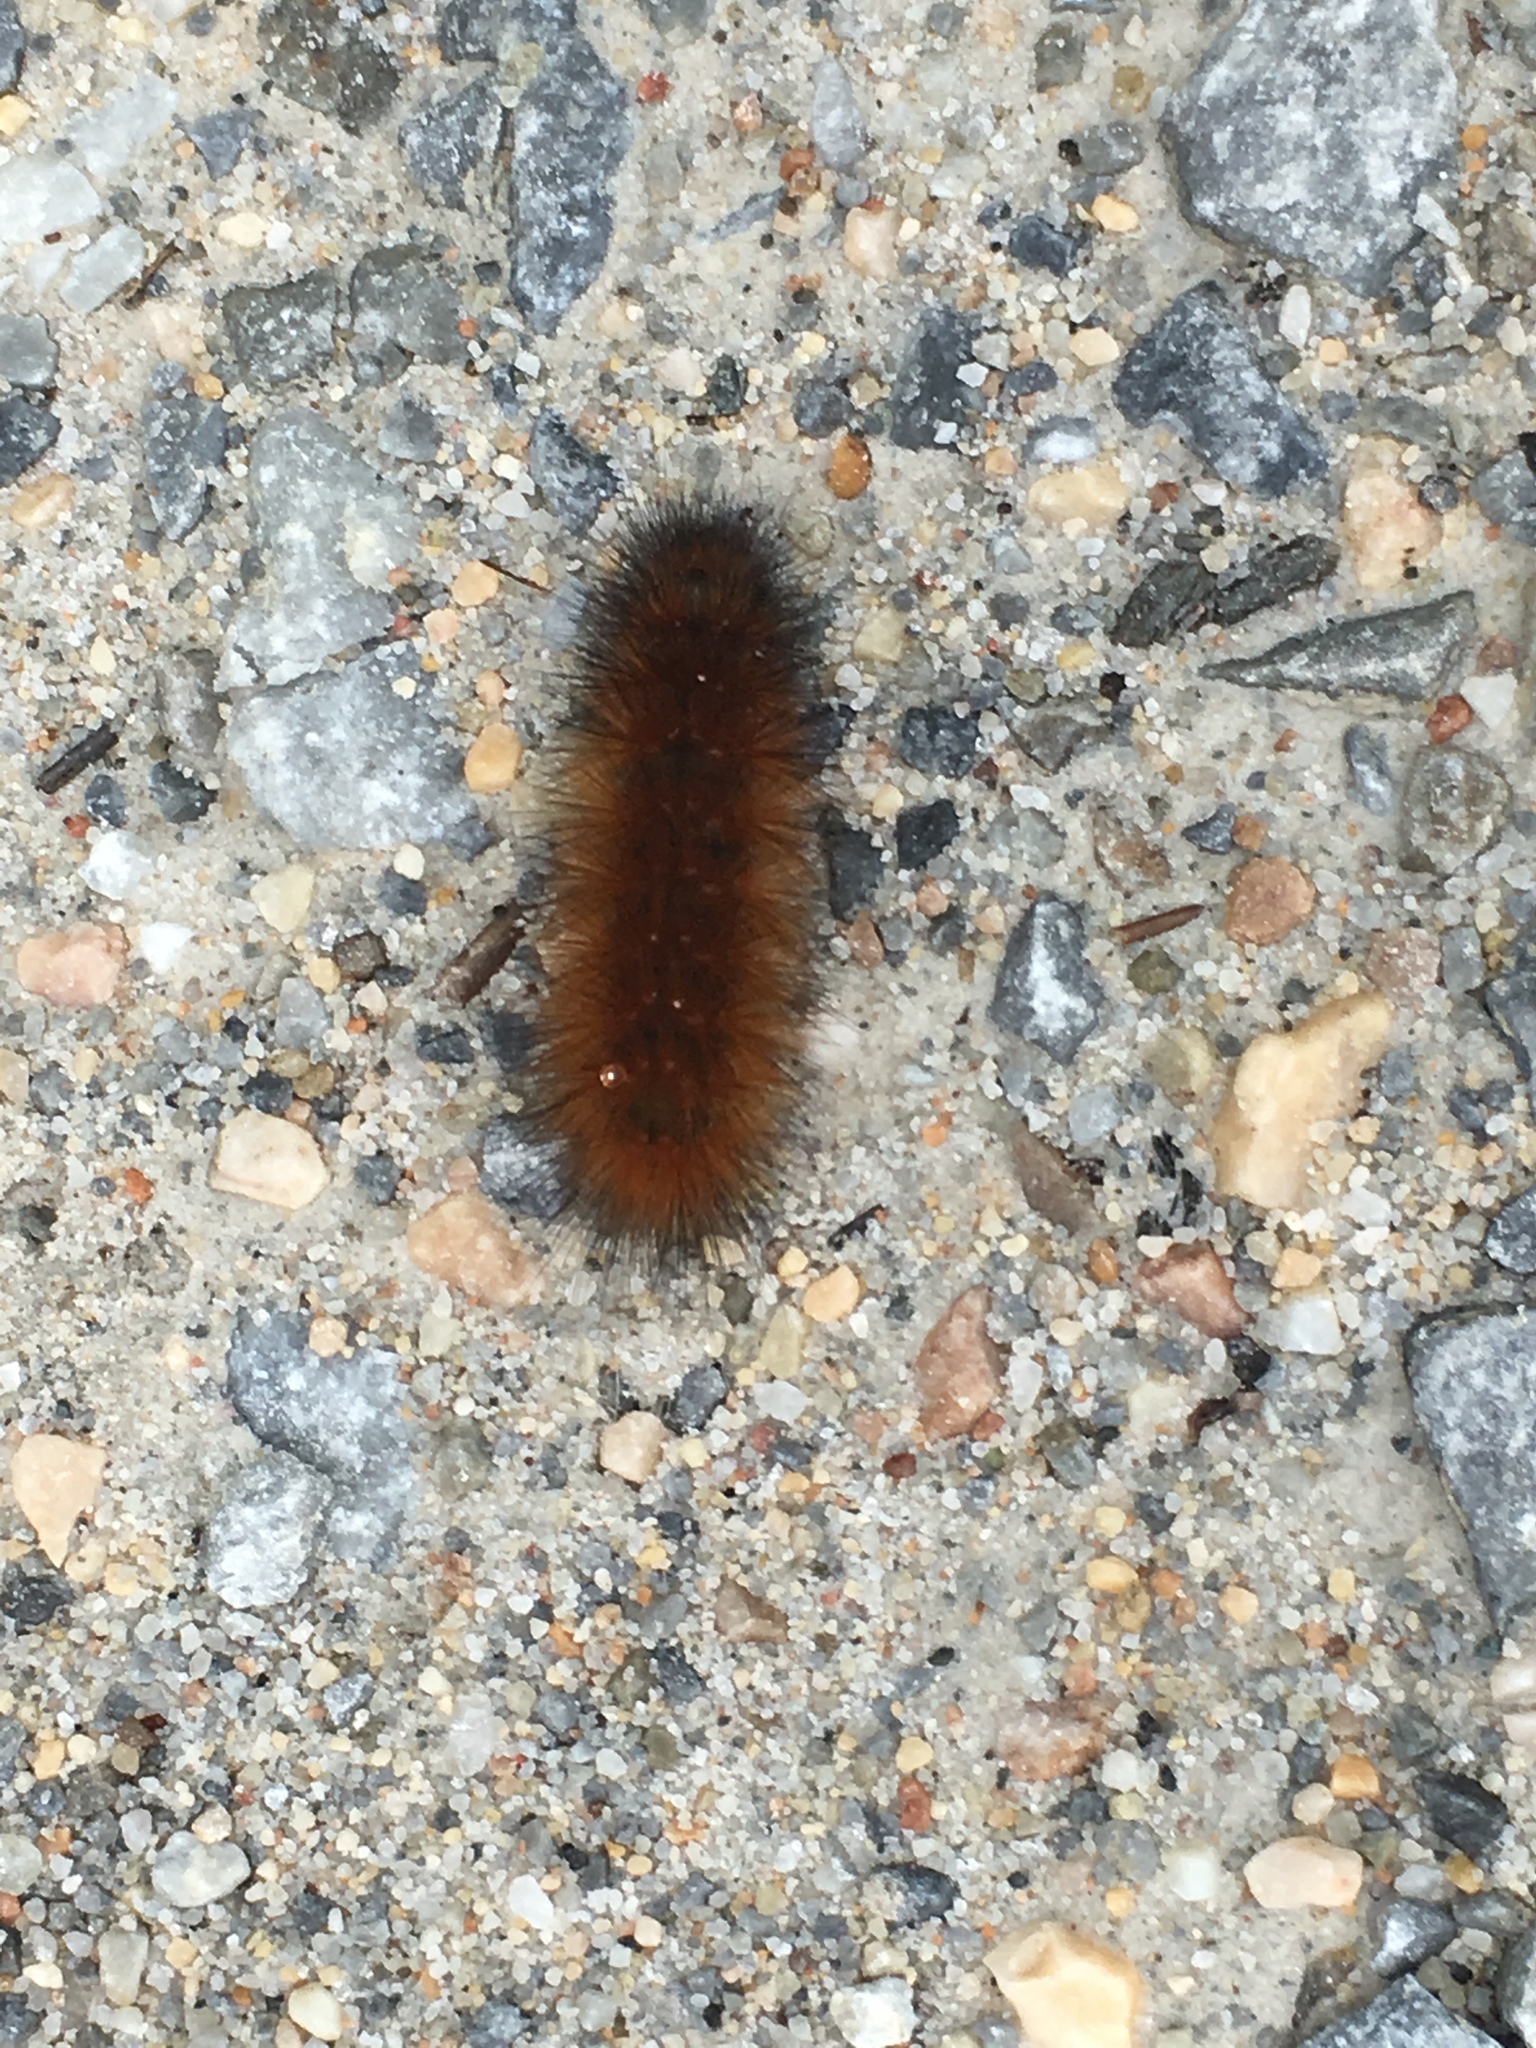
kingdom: Animalia
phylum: Arthropoda
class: Insecta
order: Lepidoptera
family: Erebidae
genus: Pyrrharctia
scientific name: Pyrrharctia isabella
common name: Isabella tiger moth
